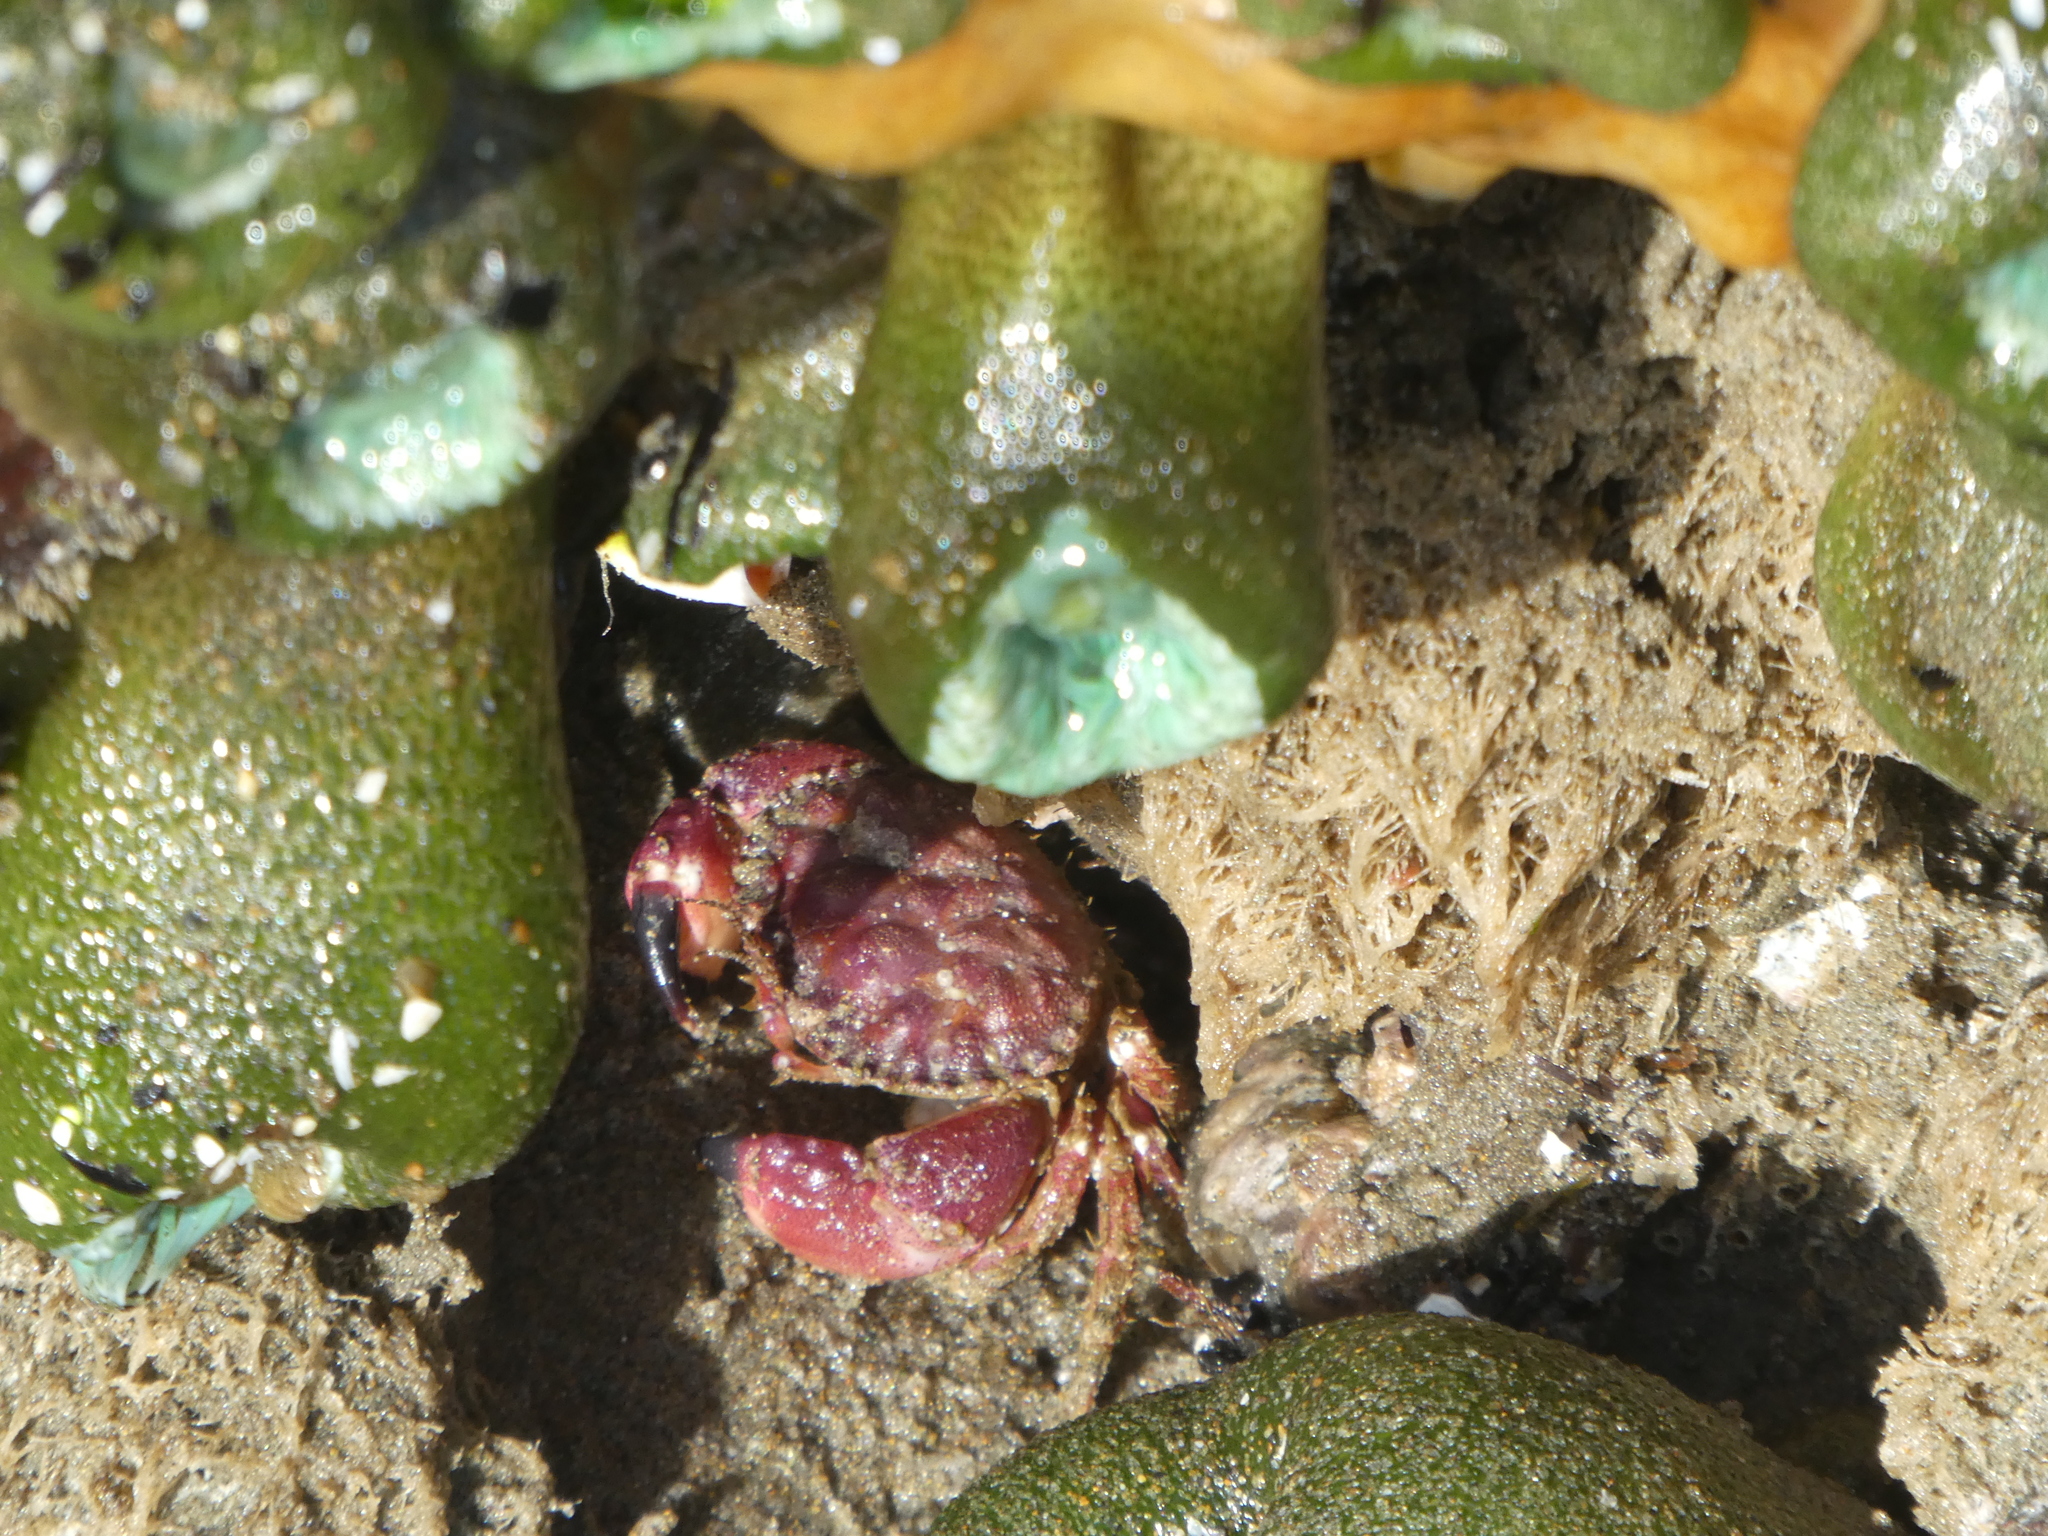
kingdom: Animalia
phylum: Arthropoda
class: Malacostraca
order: Decapoda
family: Cancridae
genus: Glebocarcinus
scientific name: Glebocarcinus oregonensis
